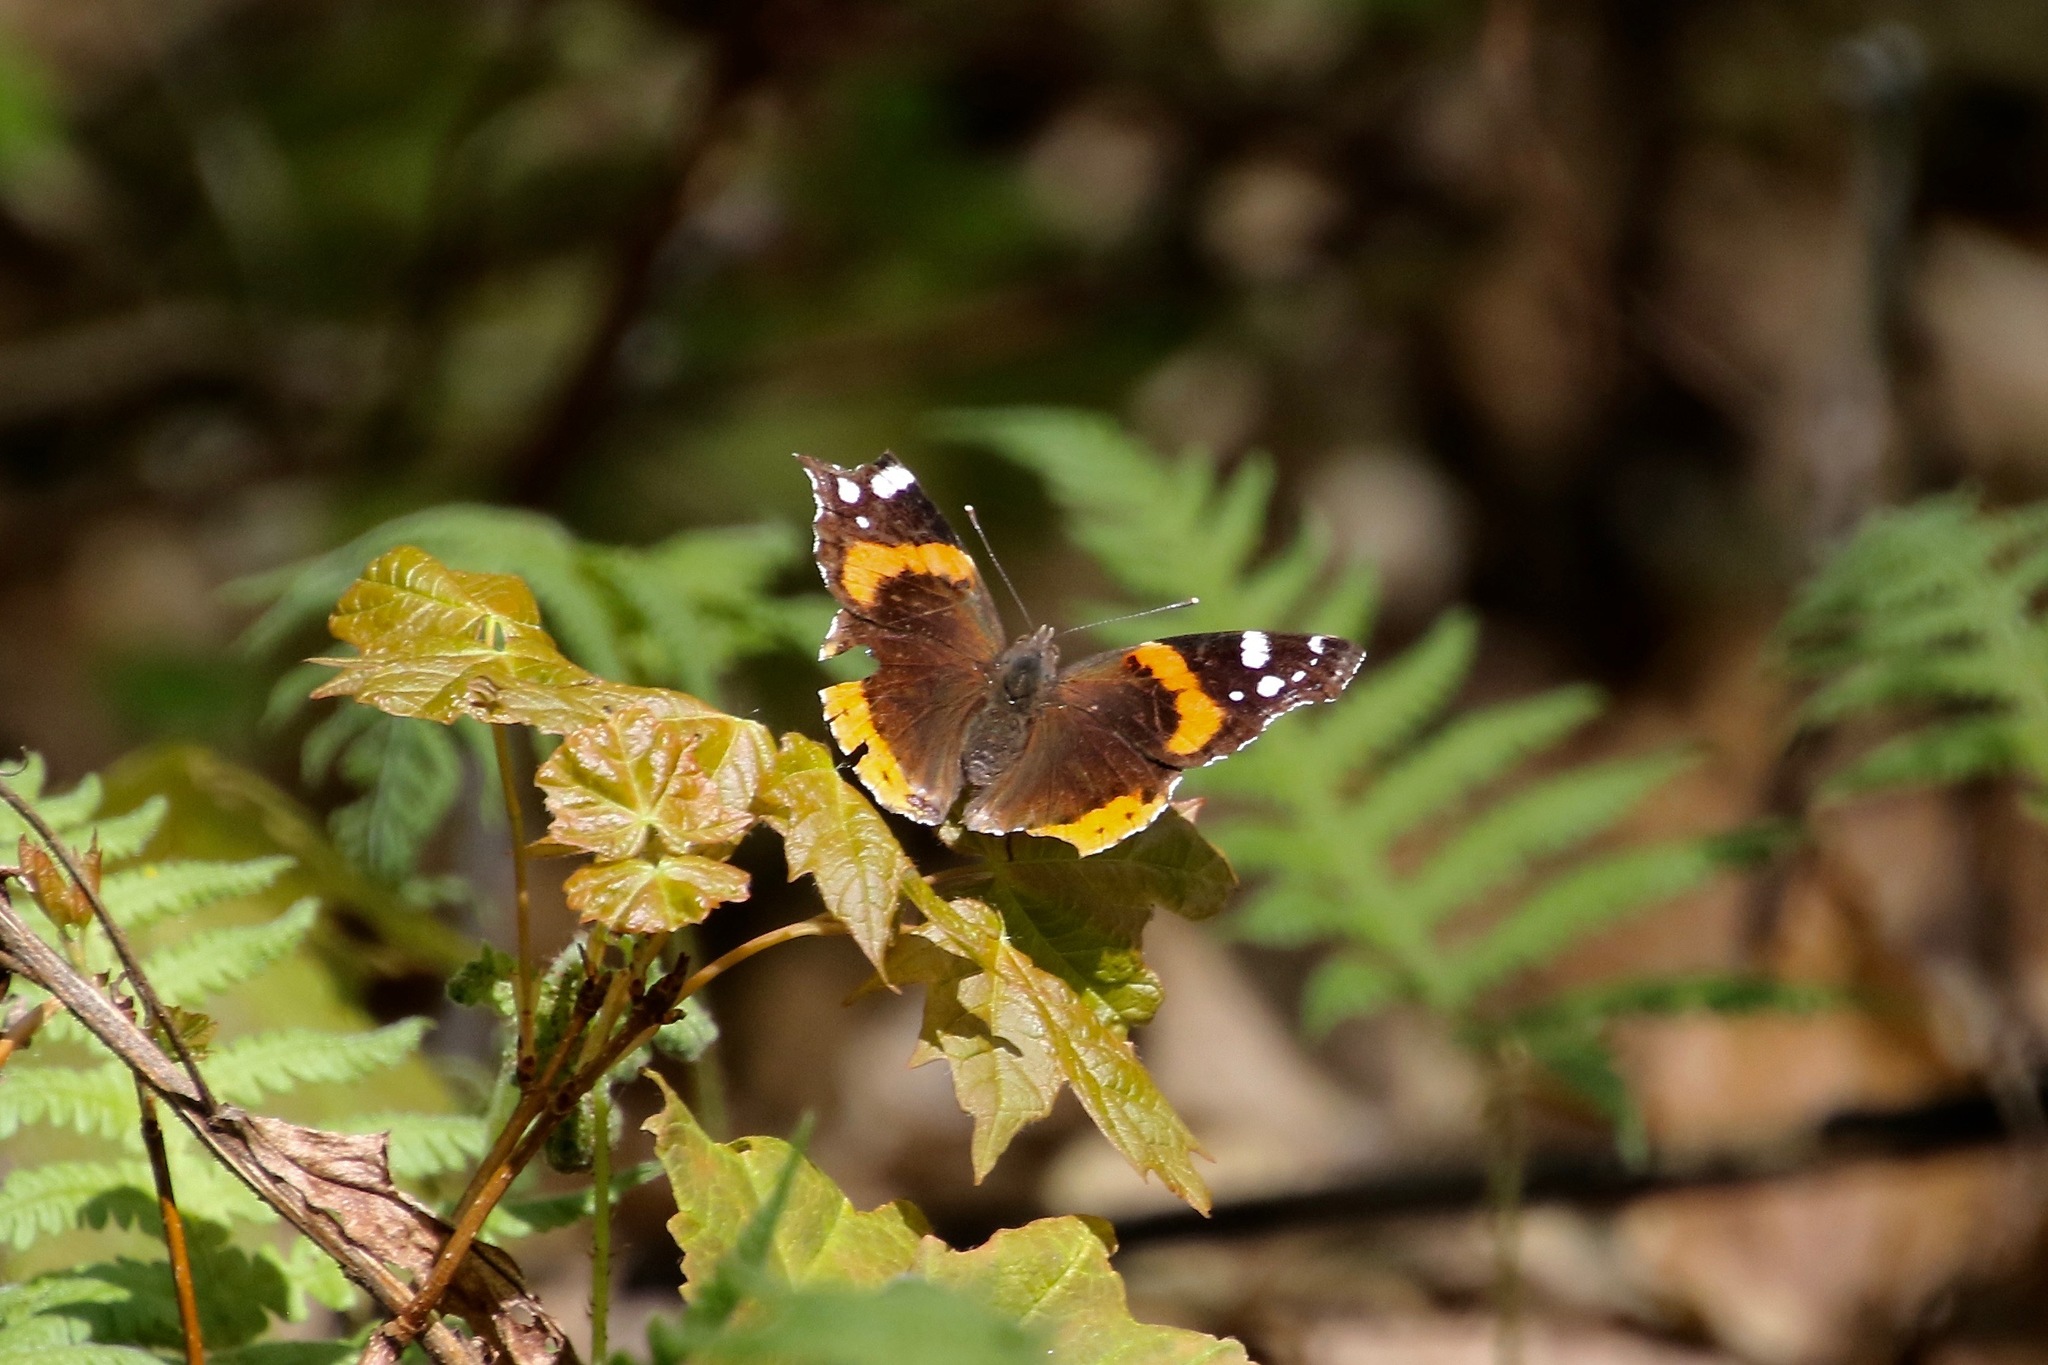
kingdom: Animalia
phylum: Arthropoda
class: Insecta
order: Lepidoptera
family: Nymphalidae
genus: Vanessa
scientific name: Vanessa atalanta
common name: Red admiral
